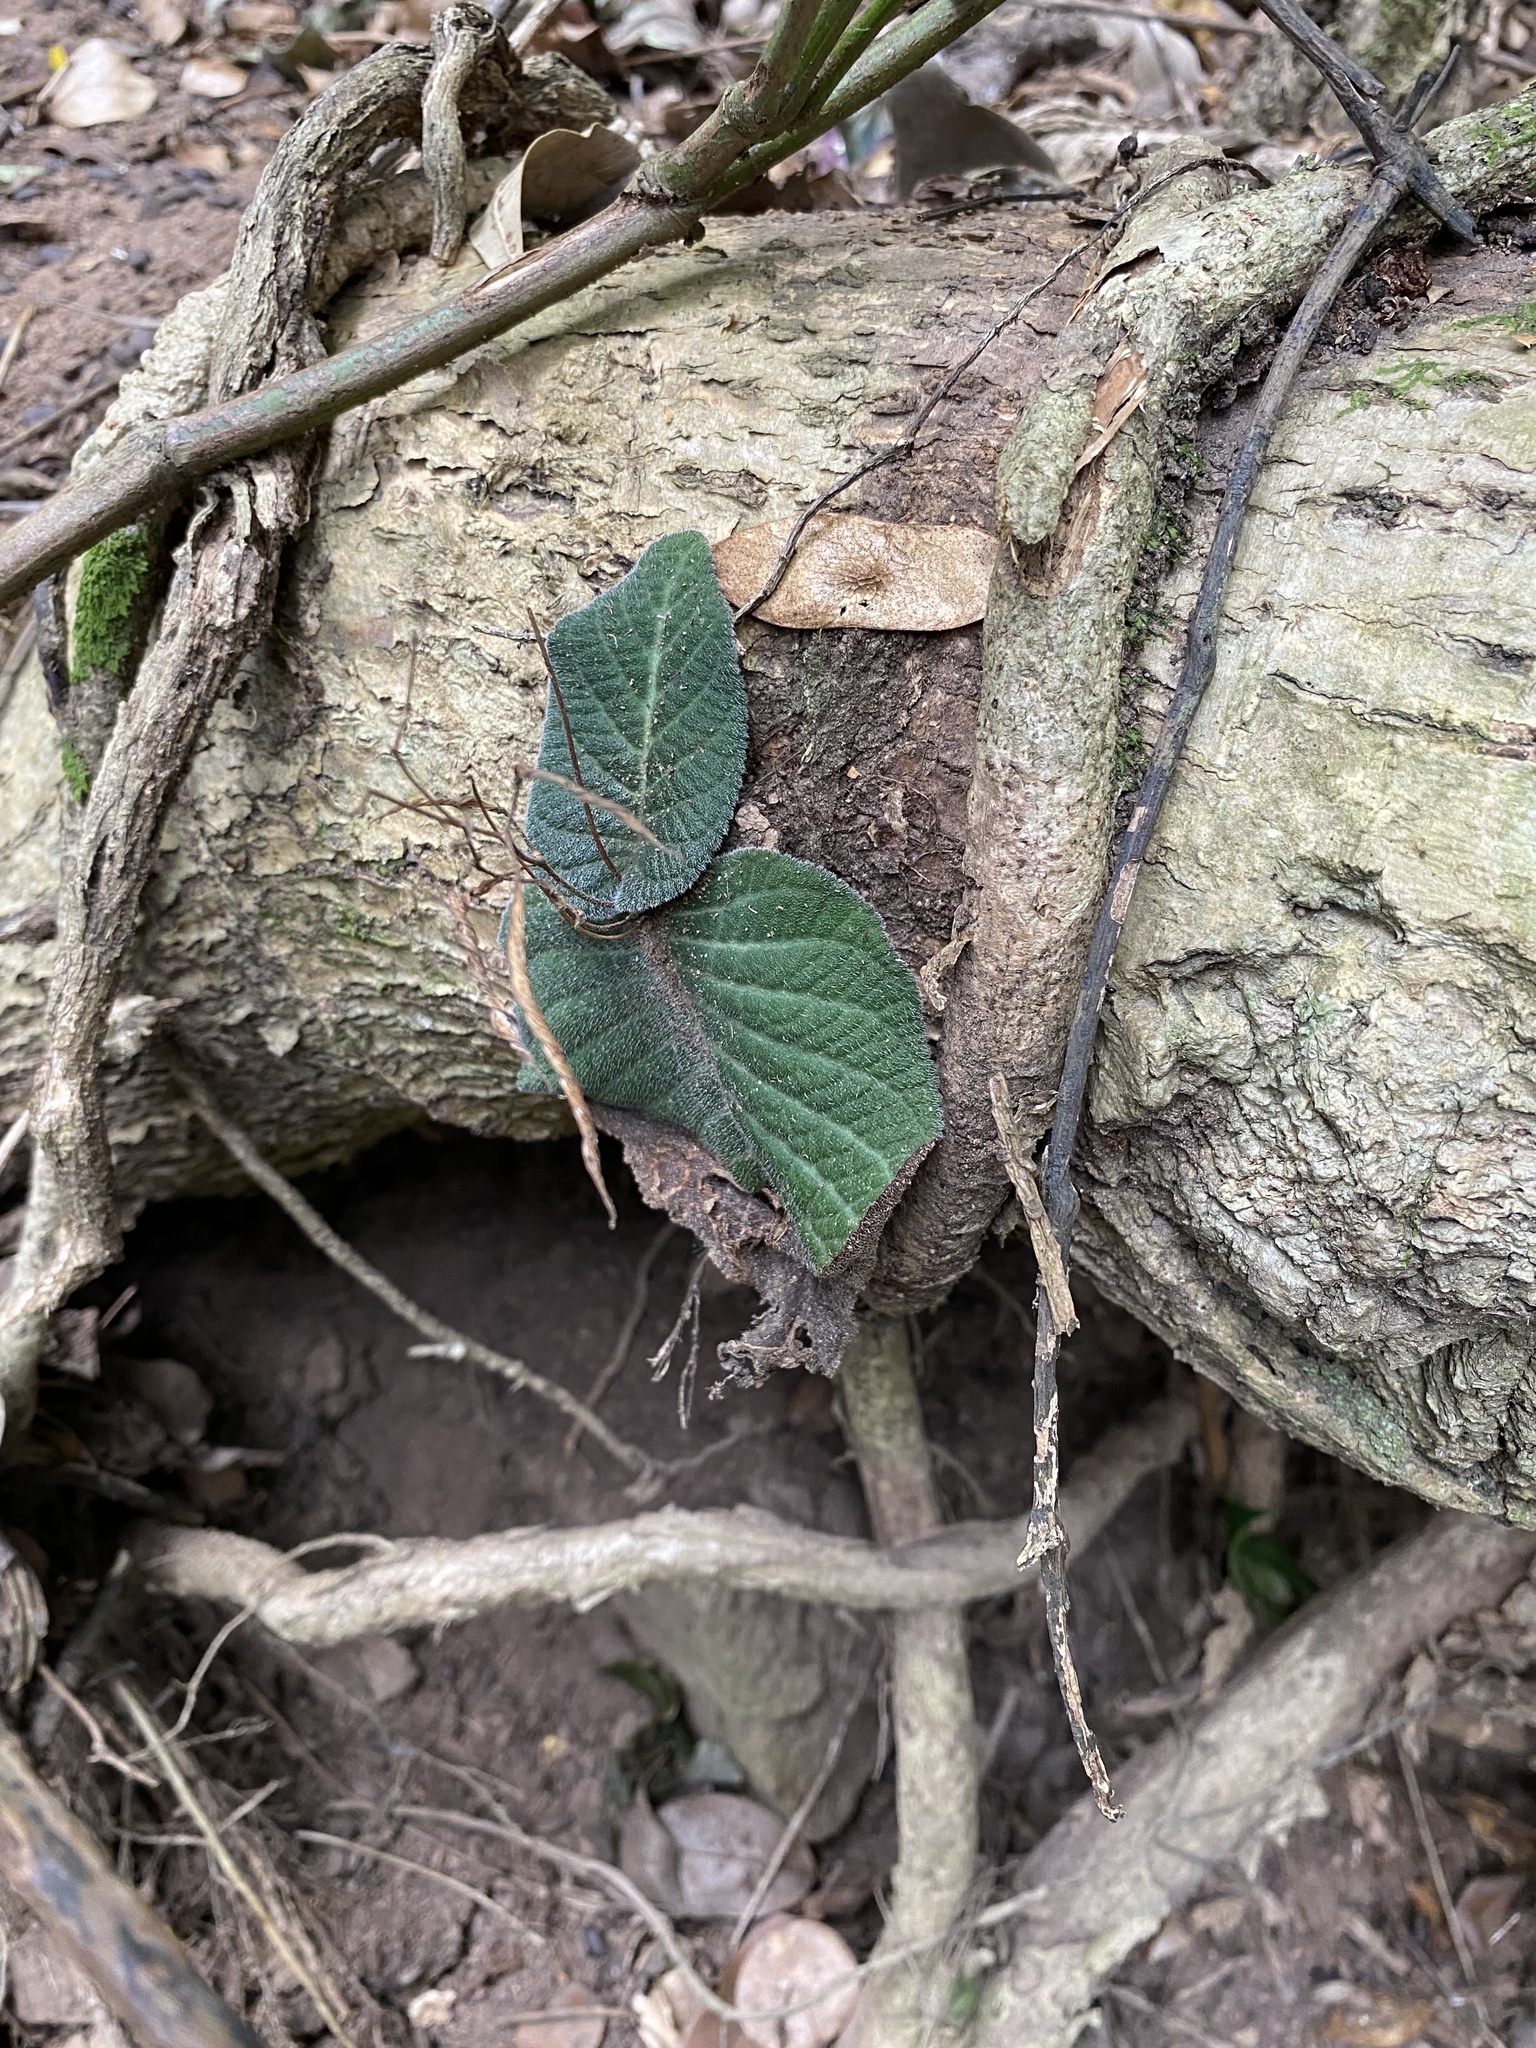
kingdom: Plantae
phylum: Tracheophyta
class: Magnoliopsida
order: Lamiales
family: Gesneriaceae
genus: Streptocarpus
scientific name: Streptocarpus prolixus
